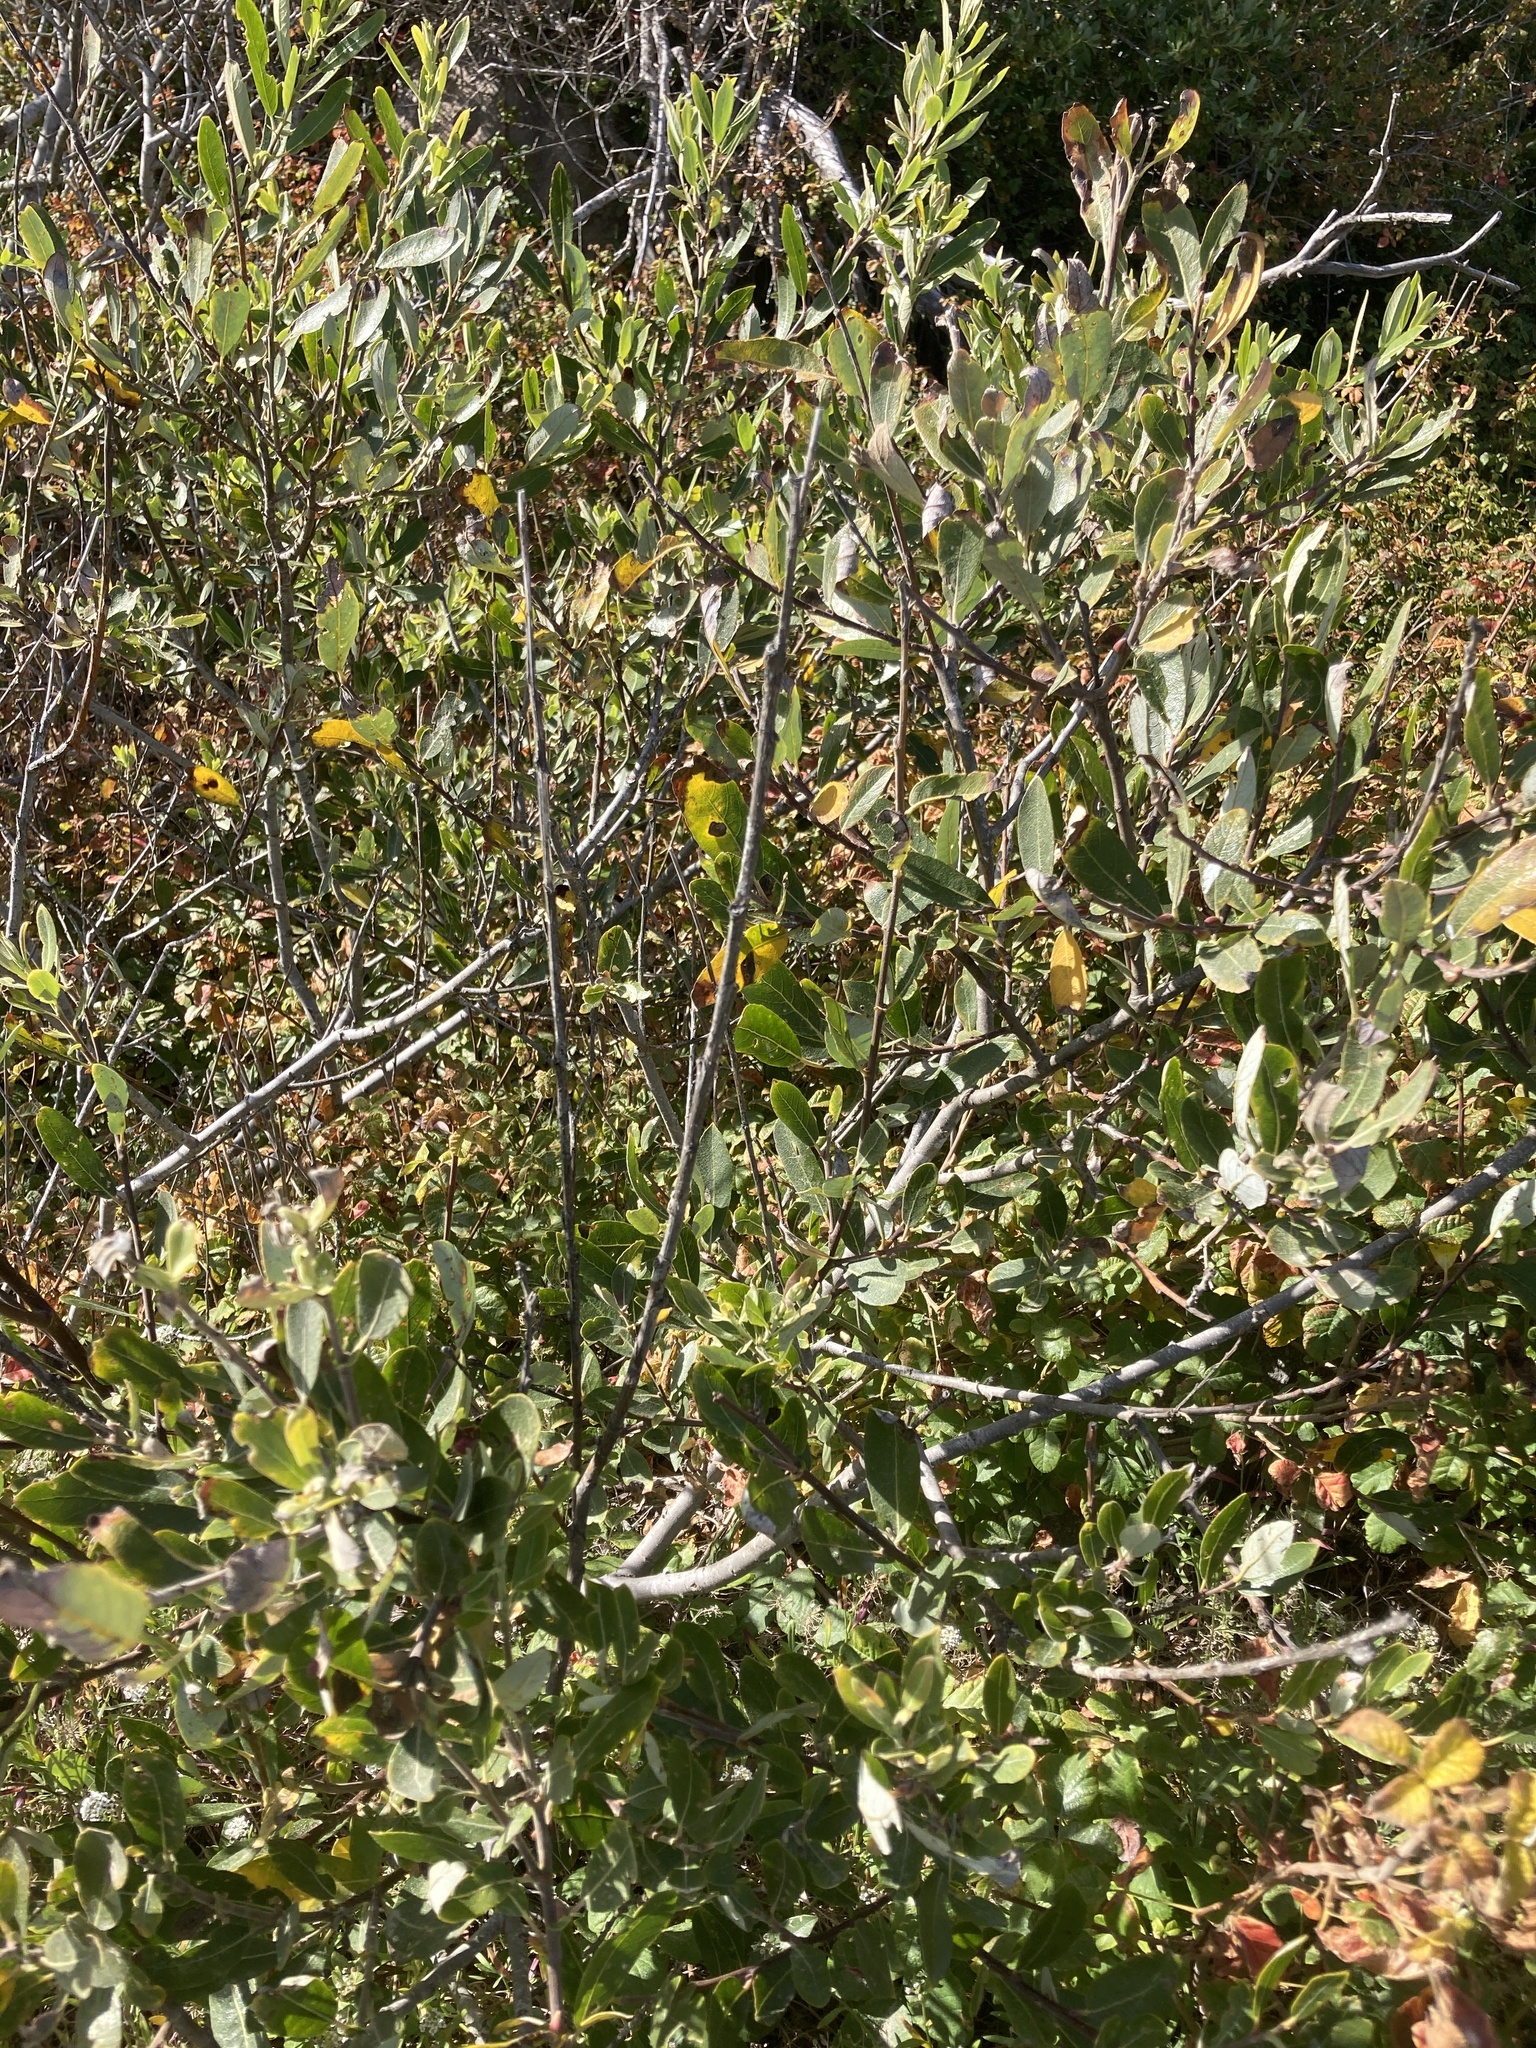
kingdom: Plantae
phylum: Tracheophyta
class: Magnoliopsida
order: Malpighiales
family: Salicaceae
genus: Salix
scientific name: Salix lasiolepis
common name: Arroyo willow
